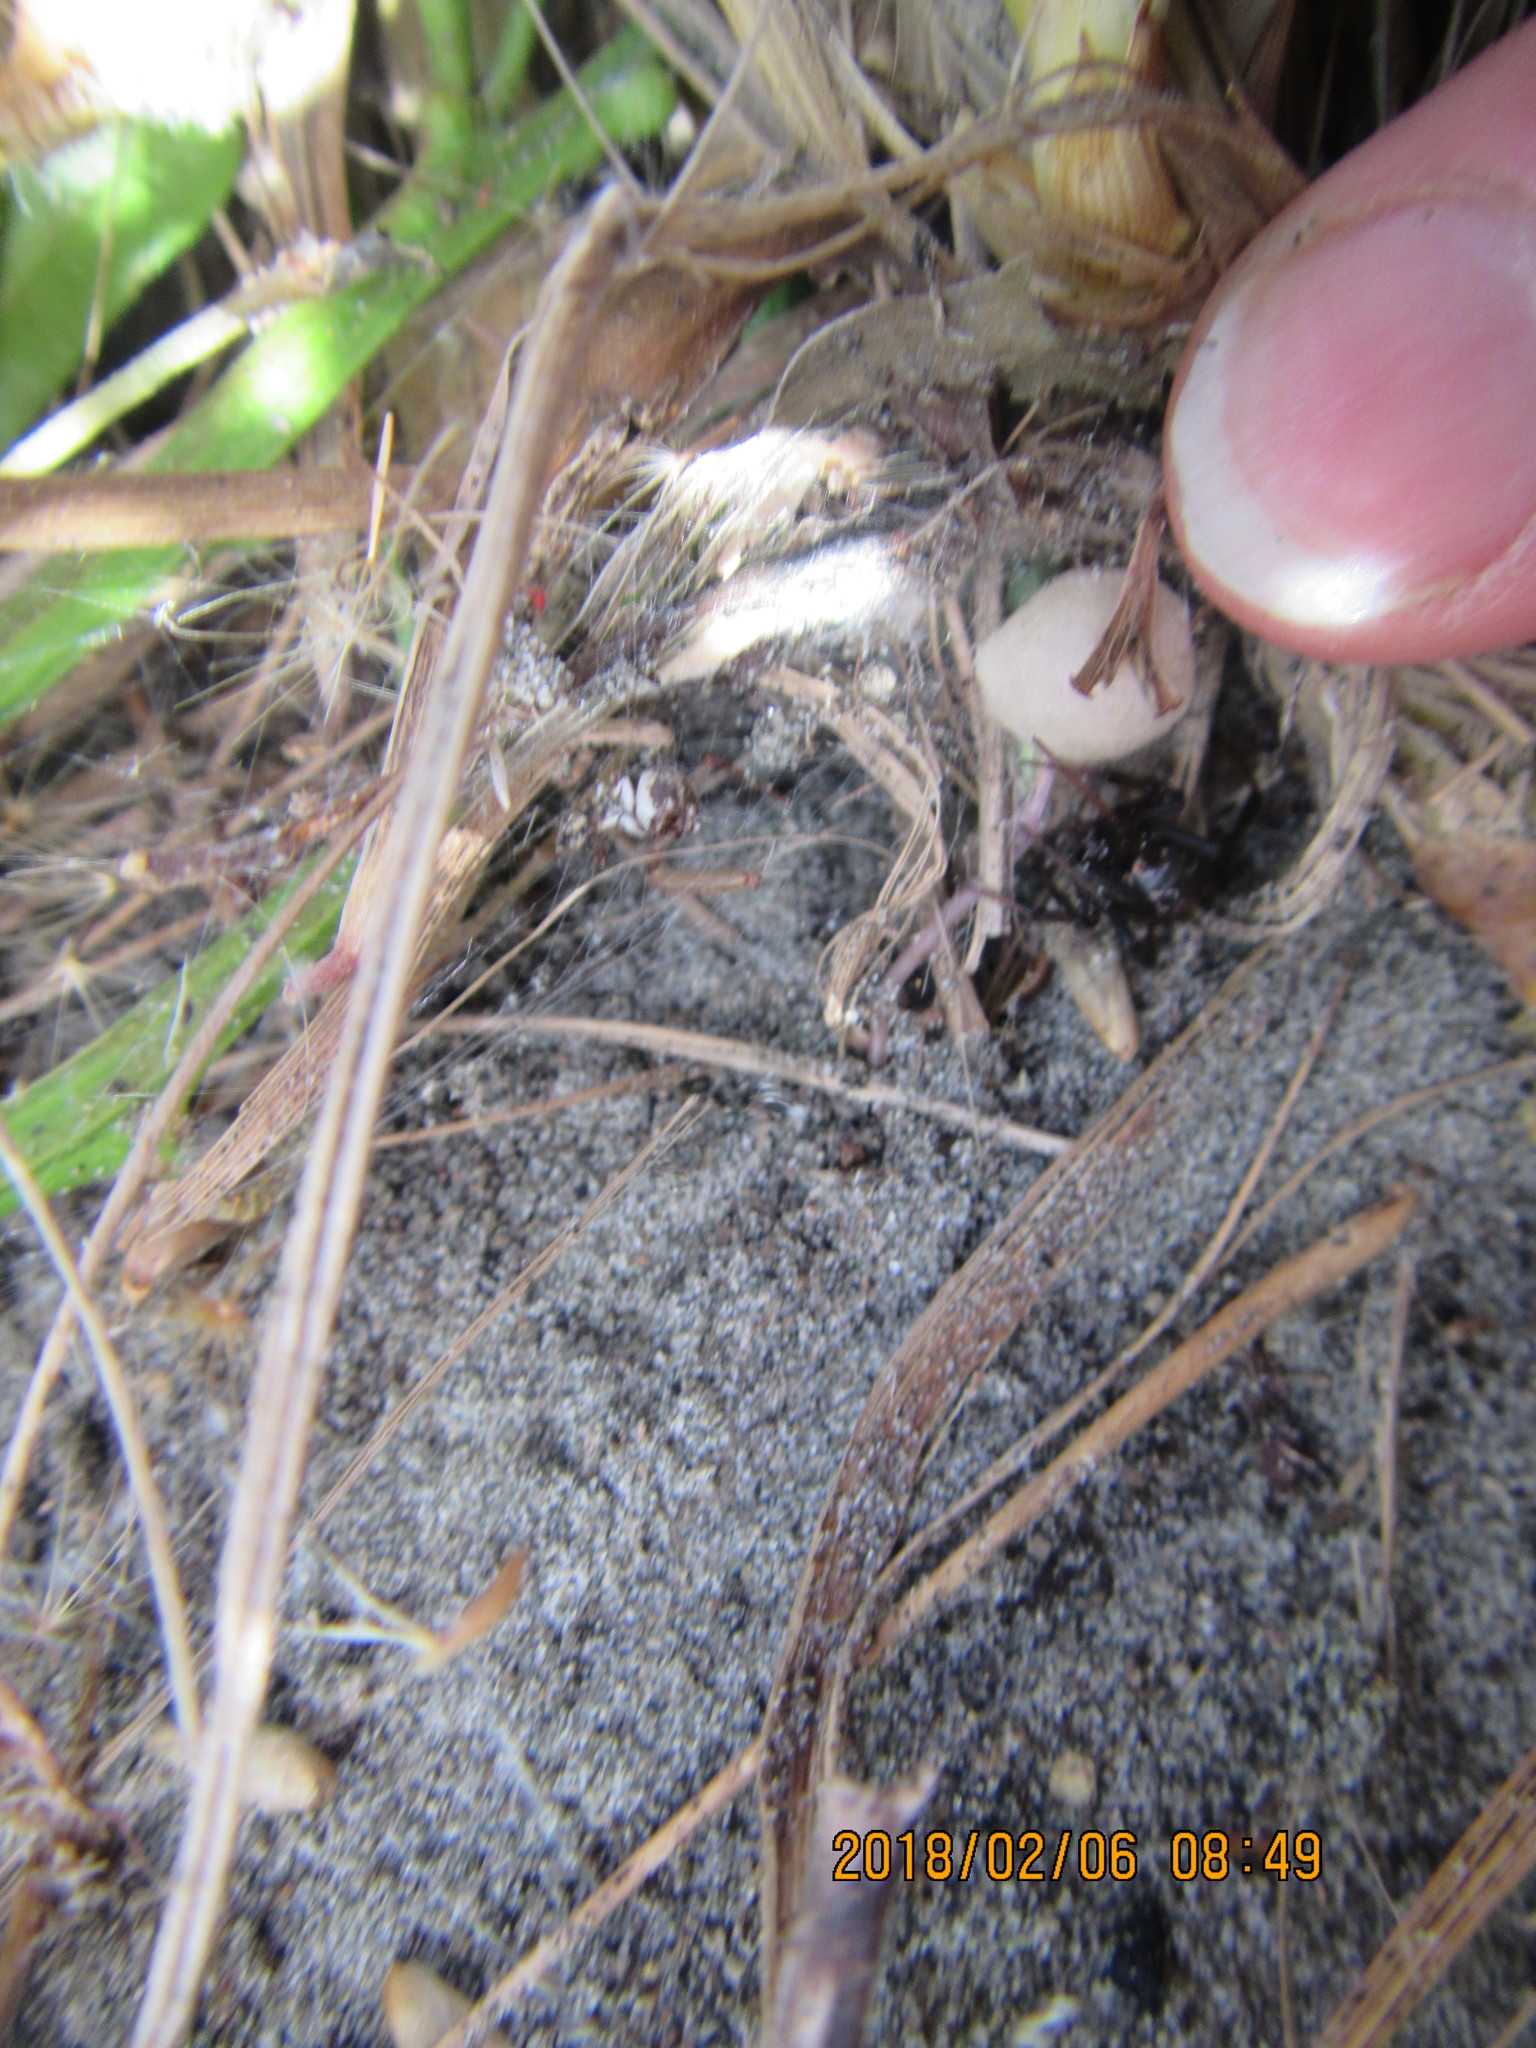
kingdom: Animalia
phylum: Arthropoda
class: Arachnida
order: Araneae
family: Theridiidae
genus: Latrodectus
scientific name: Latrodectus katipo
